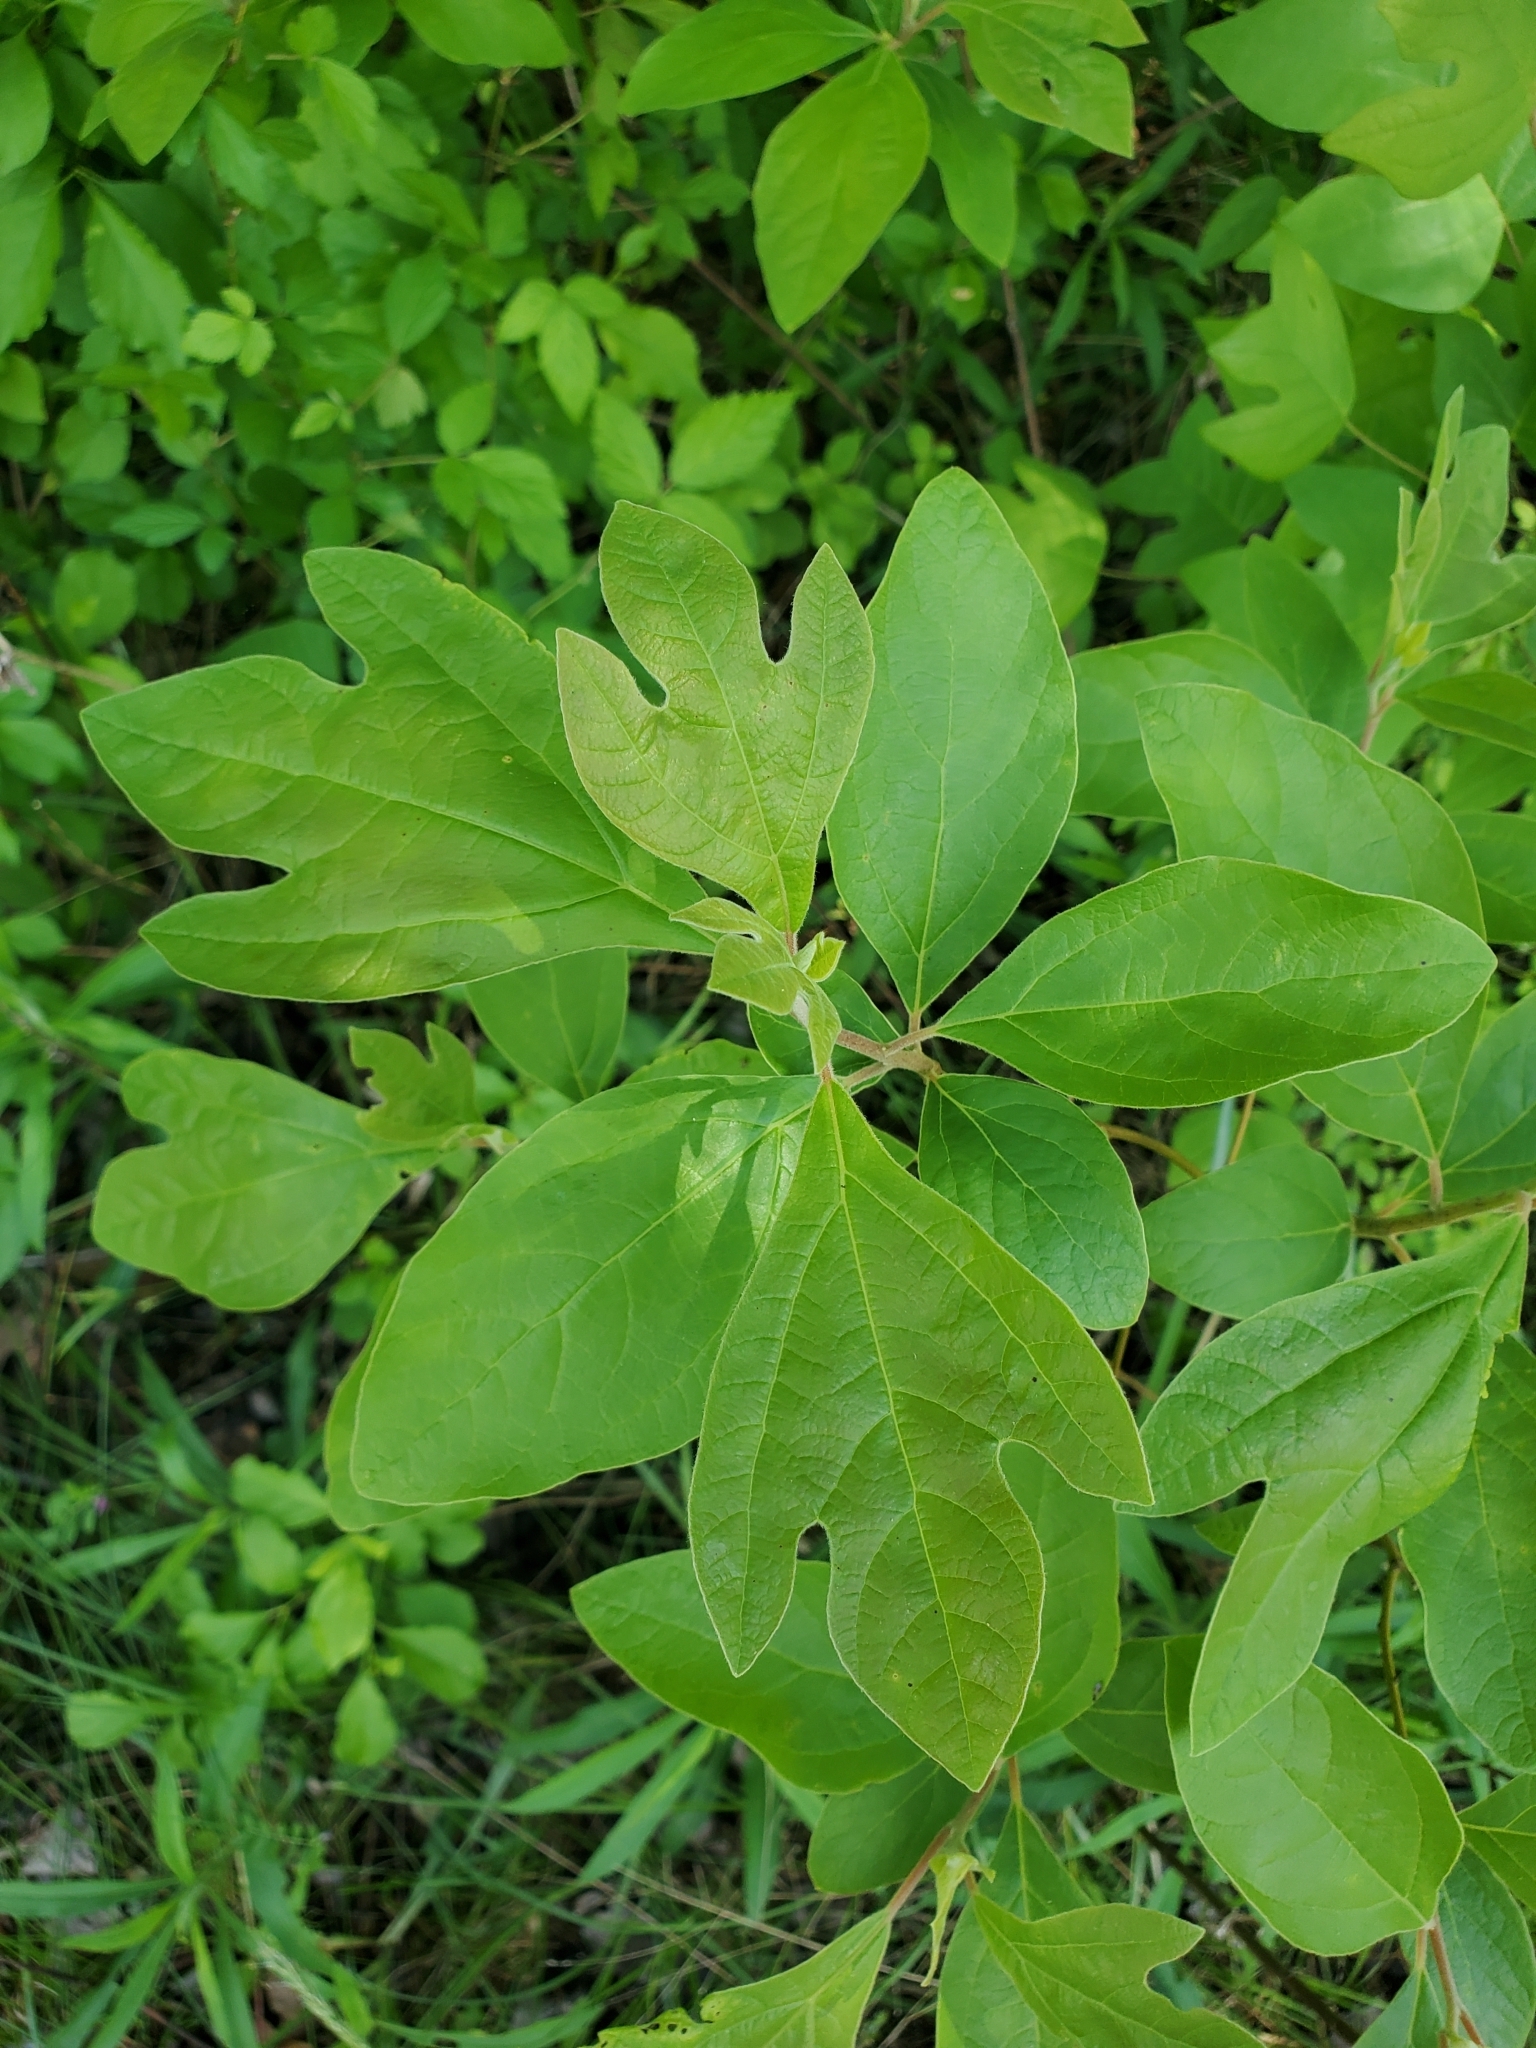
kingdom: Plantae
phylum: Tracheophyta
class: Magnoliopsida
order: Laurales
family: Lauraceae
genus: Sassafras
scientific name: Sassafras albidum
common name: Sassafras
